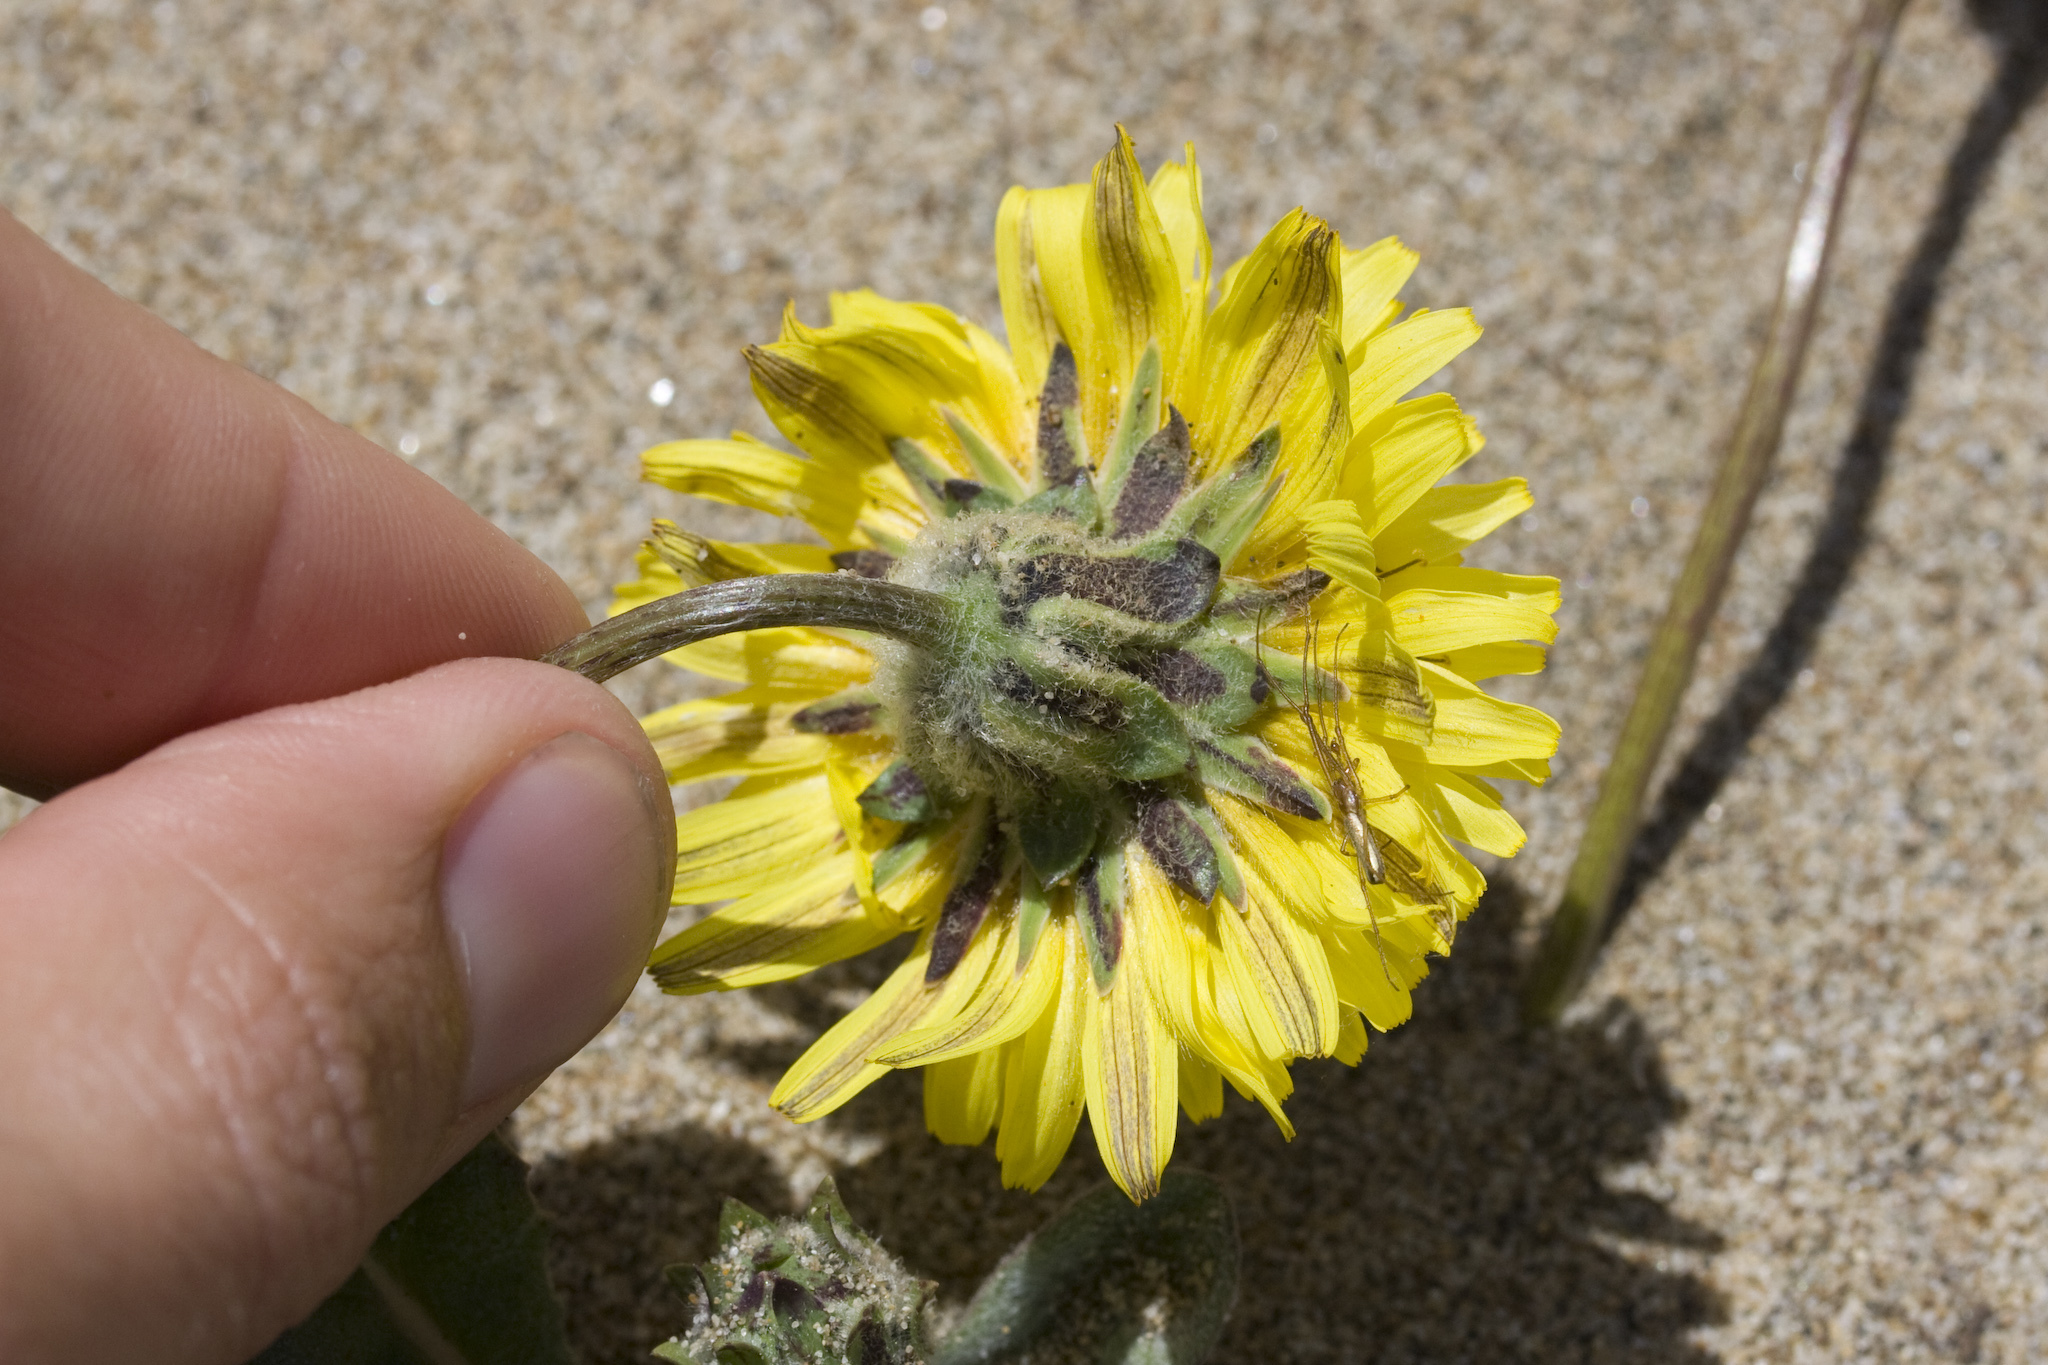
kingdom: Plantae
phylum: Tracheophyta
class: Magnoliopsida
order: Asterales
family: Asteraceae
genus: Agoseris
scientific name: Agoseris apargioides
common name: Point reyes agoseris
